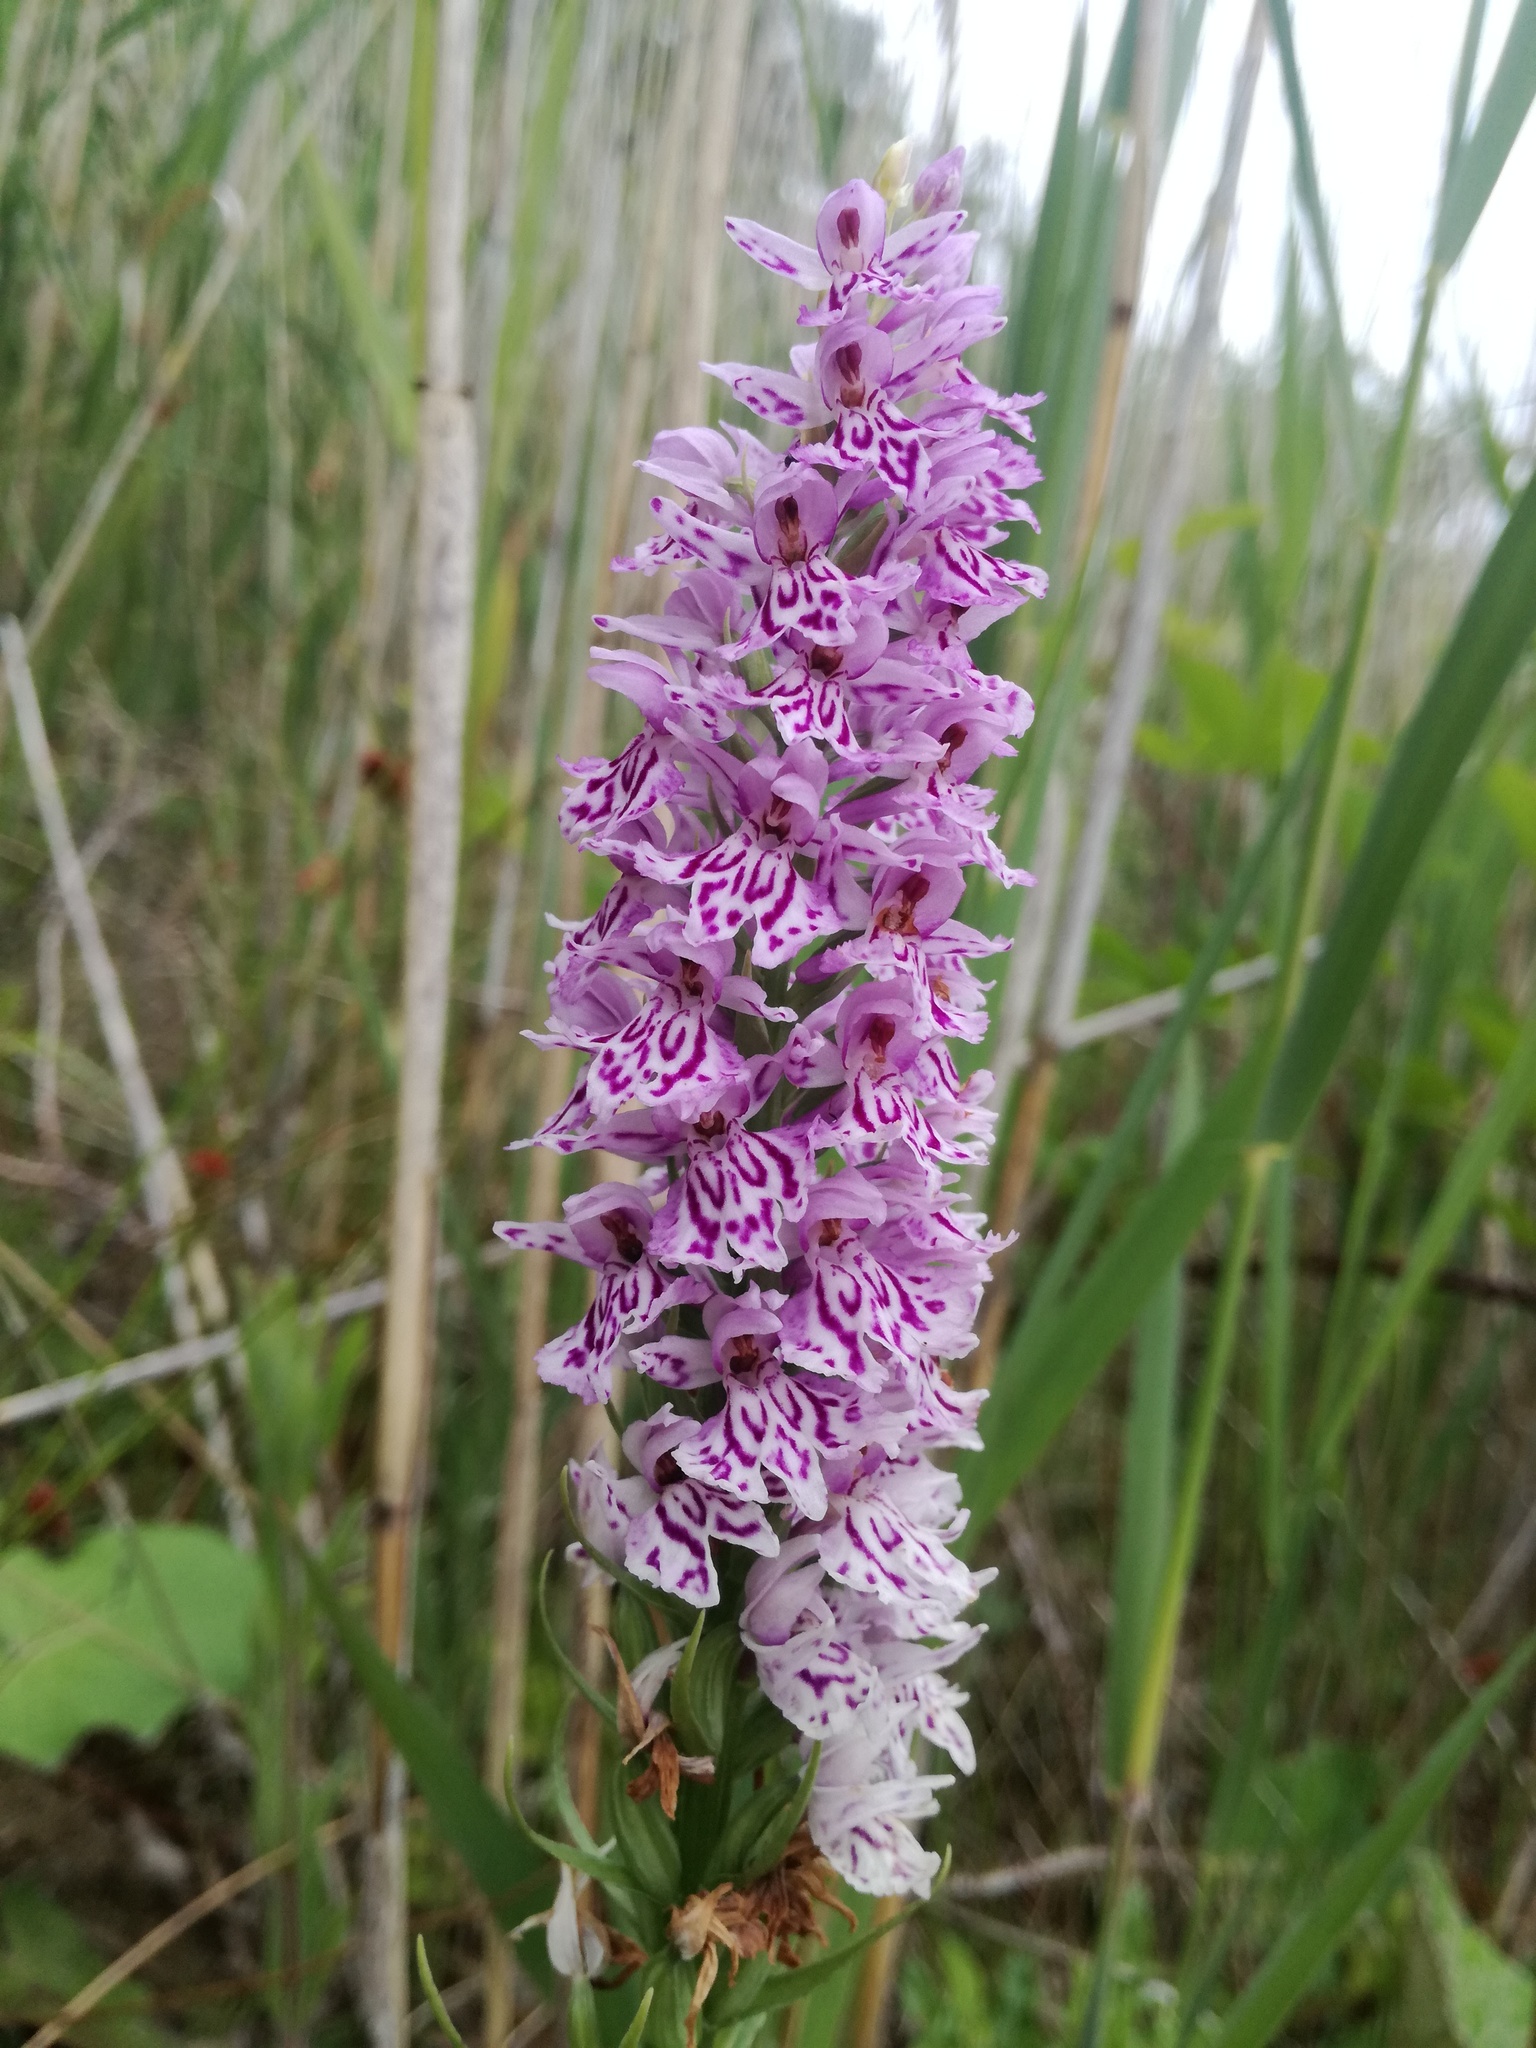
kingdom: Plantae
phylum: Tracheophyta
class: Liliopsida
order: Asparagales
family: Orchidaceae
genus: Dactylorhiza
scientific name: Dactylorhiza maculata
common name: Heath spotted-orchid
